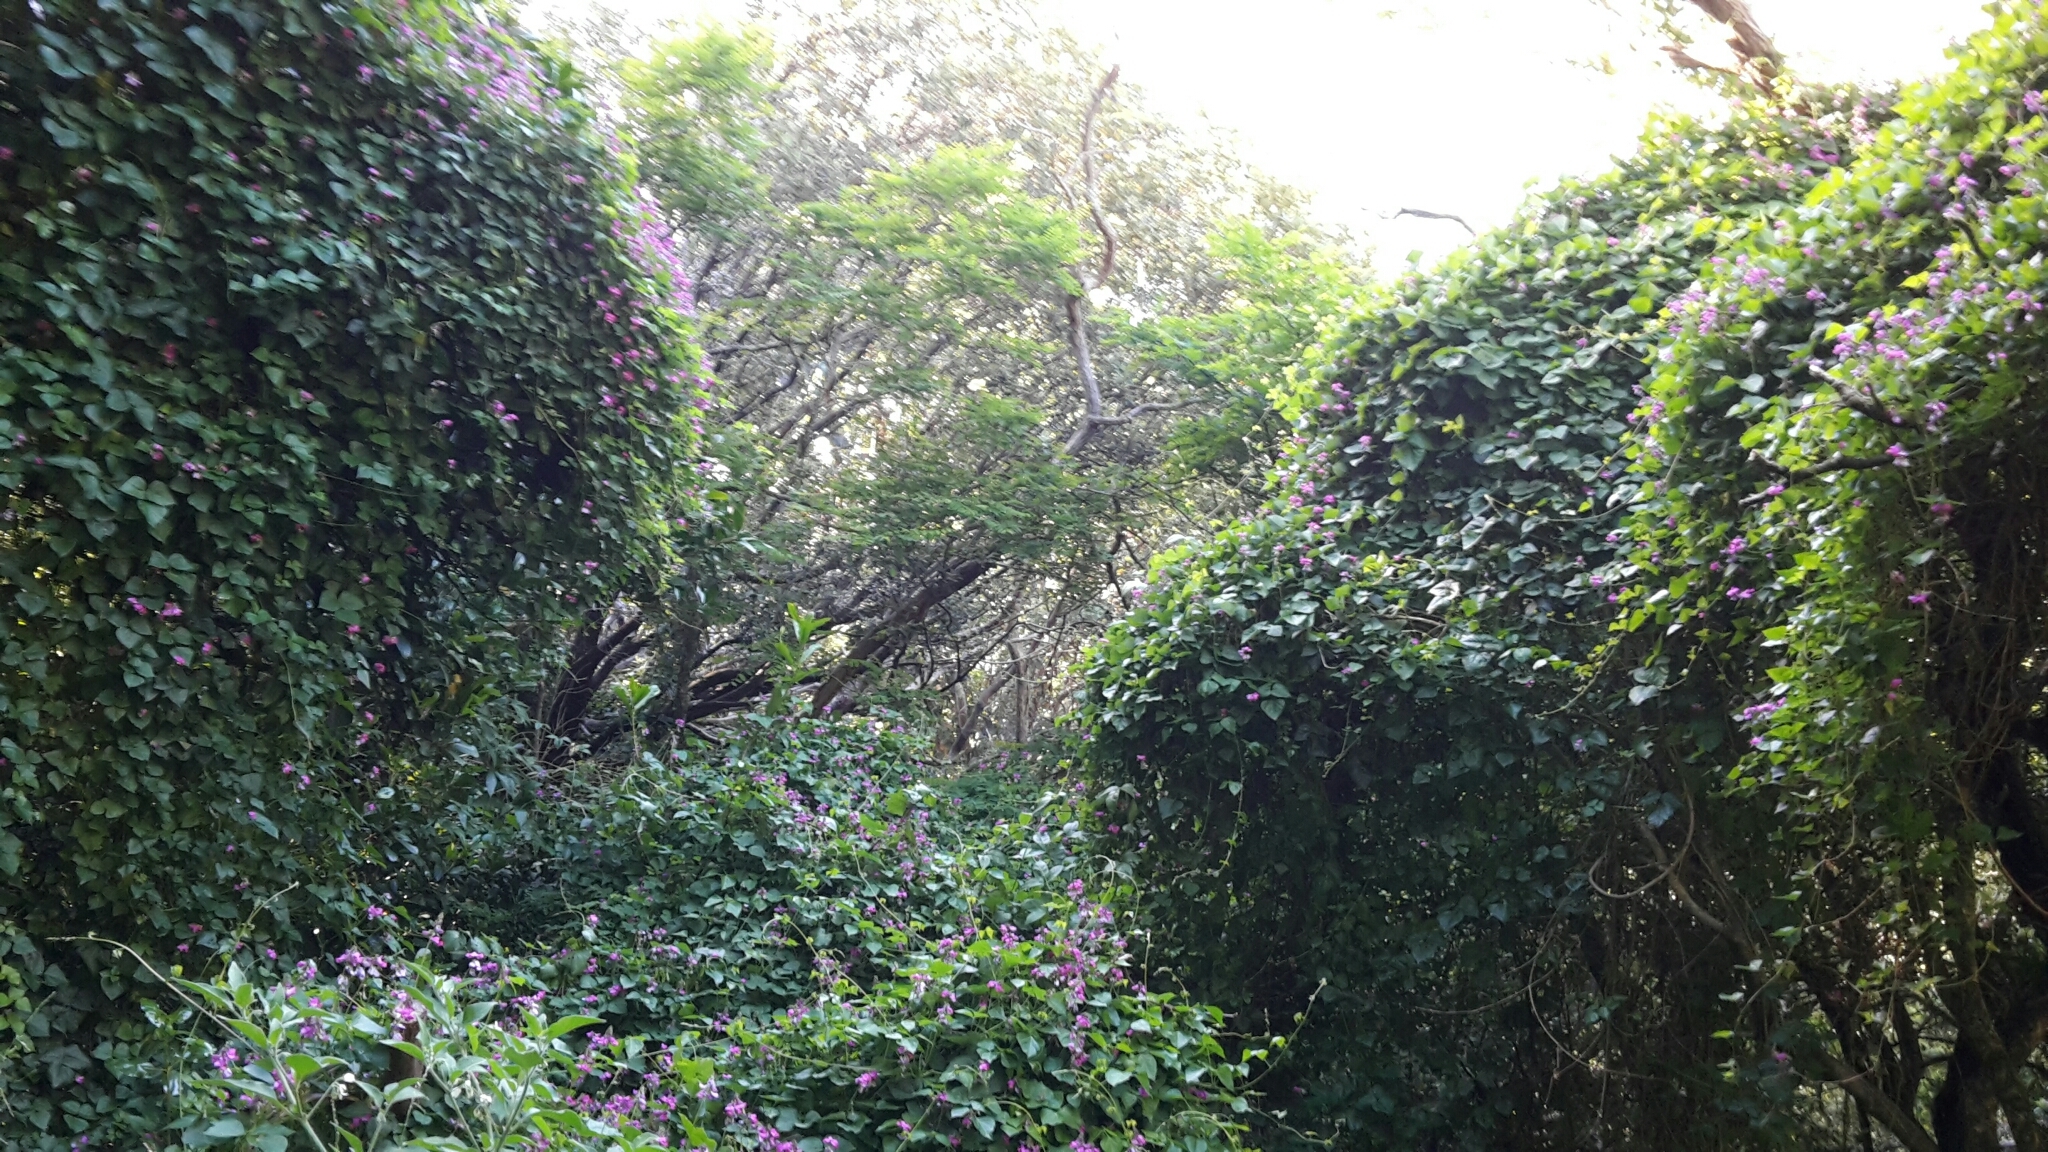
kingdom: Plantae
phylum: Tracheophyta
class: Magnoliopsida
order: Fabales
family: Fabaceae
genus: Dipogon
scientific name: Dipogon lignosus
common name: Okie bean
